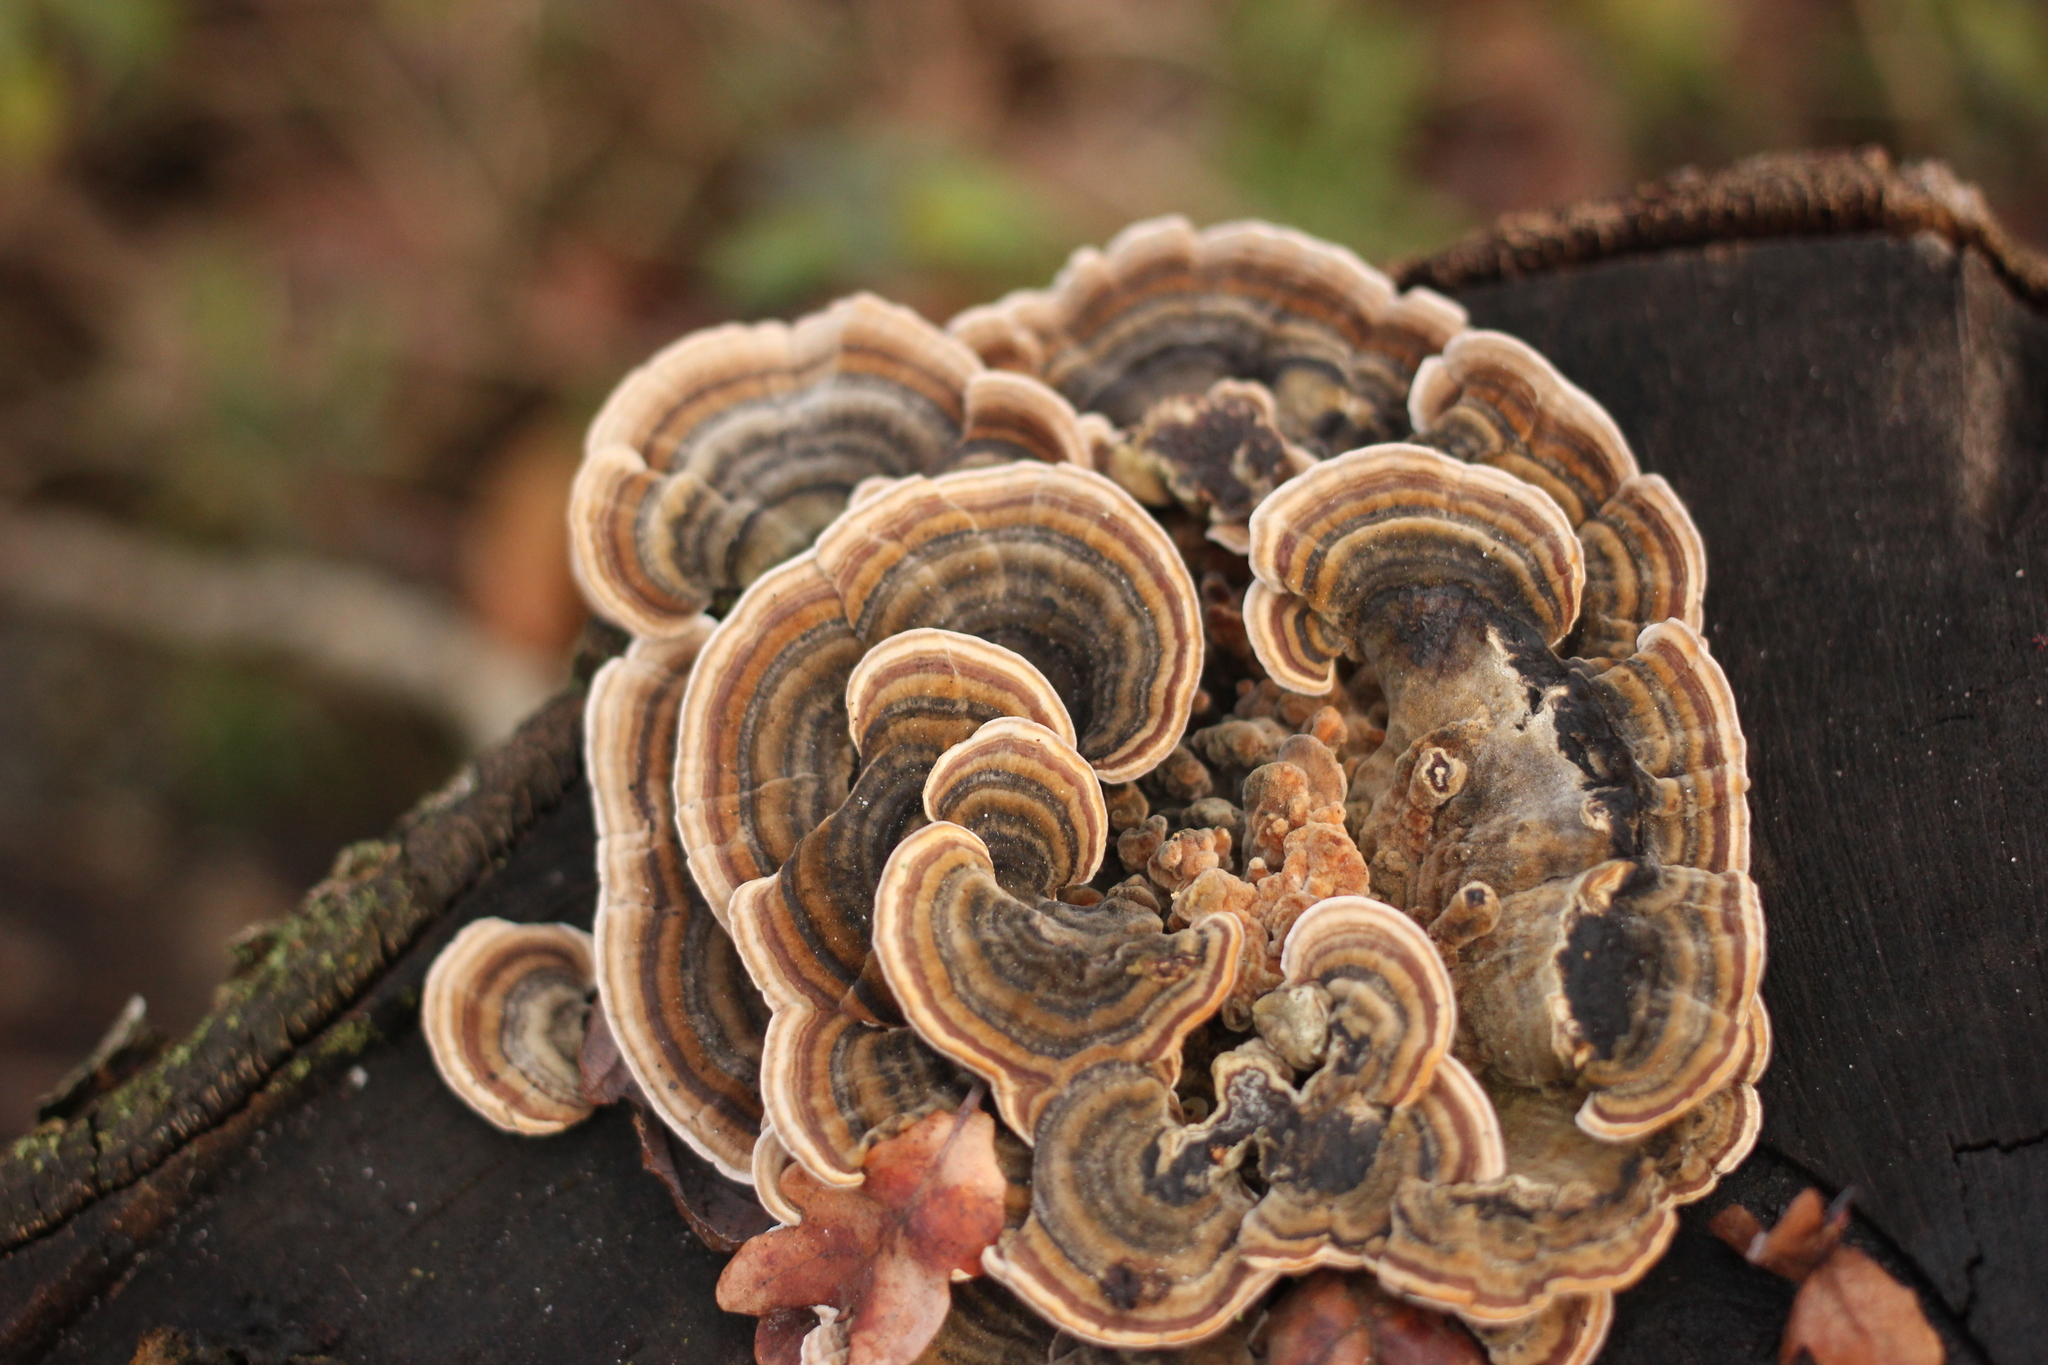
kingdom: Fungi
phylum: Basidiomycota
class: Agaricomycetes
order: Polyporales
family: Polyporaceae
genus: Trametes
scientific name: Trametes versicolor
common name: Turkeytail
